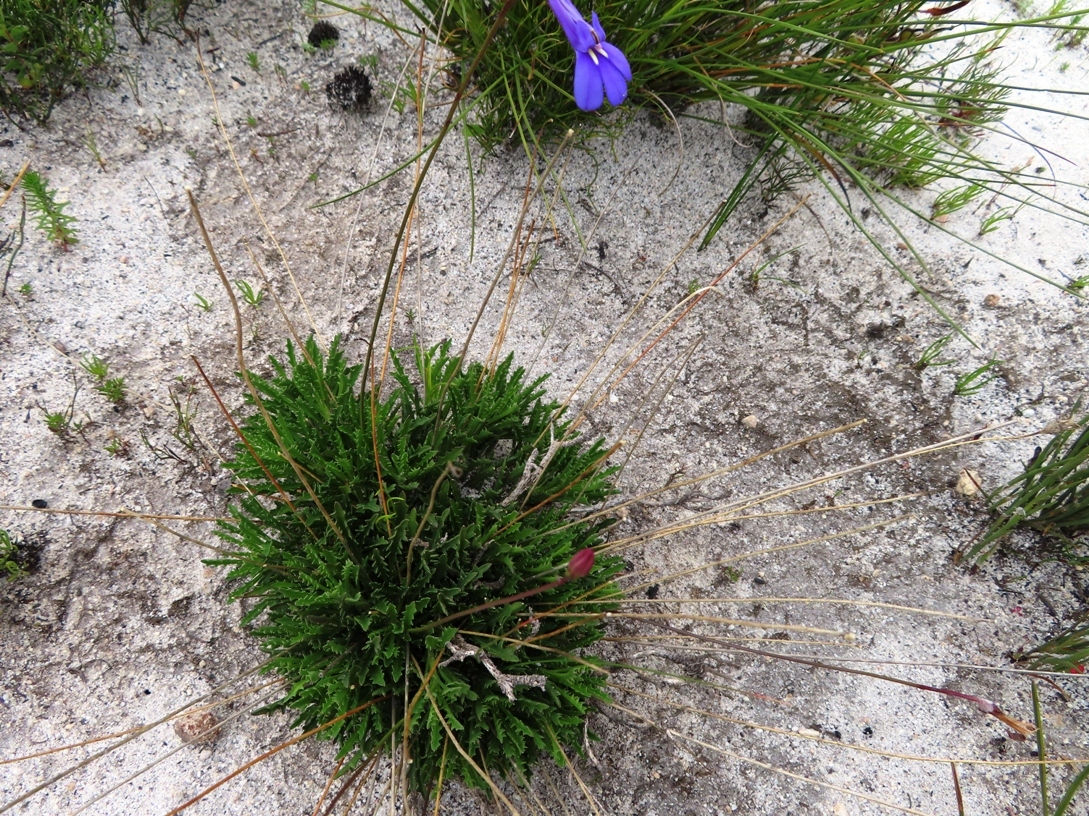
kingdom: Plantae
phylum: Tracheophyta
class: Magnoliopsida
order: Asterales
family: Campanulaceae
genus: Lobelia
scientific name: Lobelia coronopifolia
